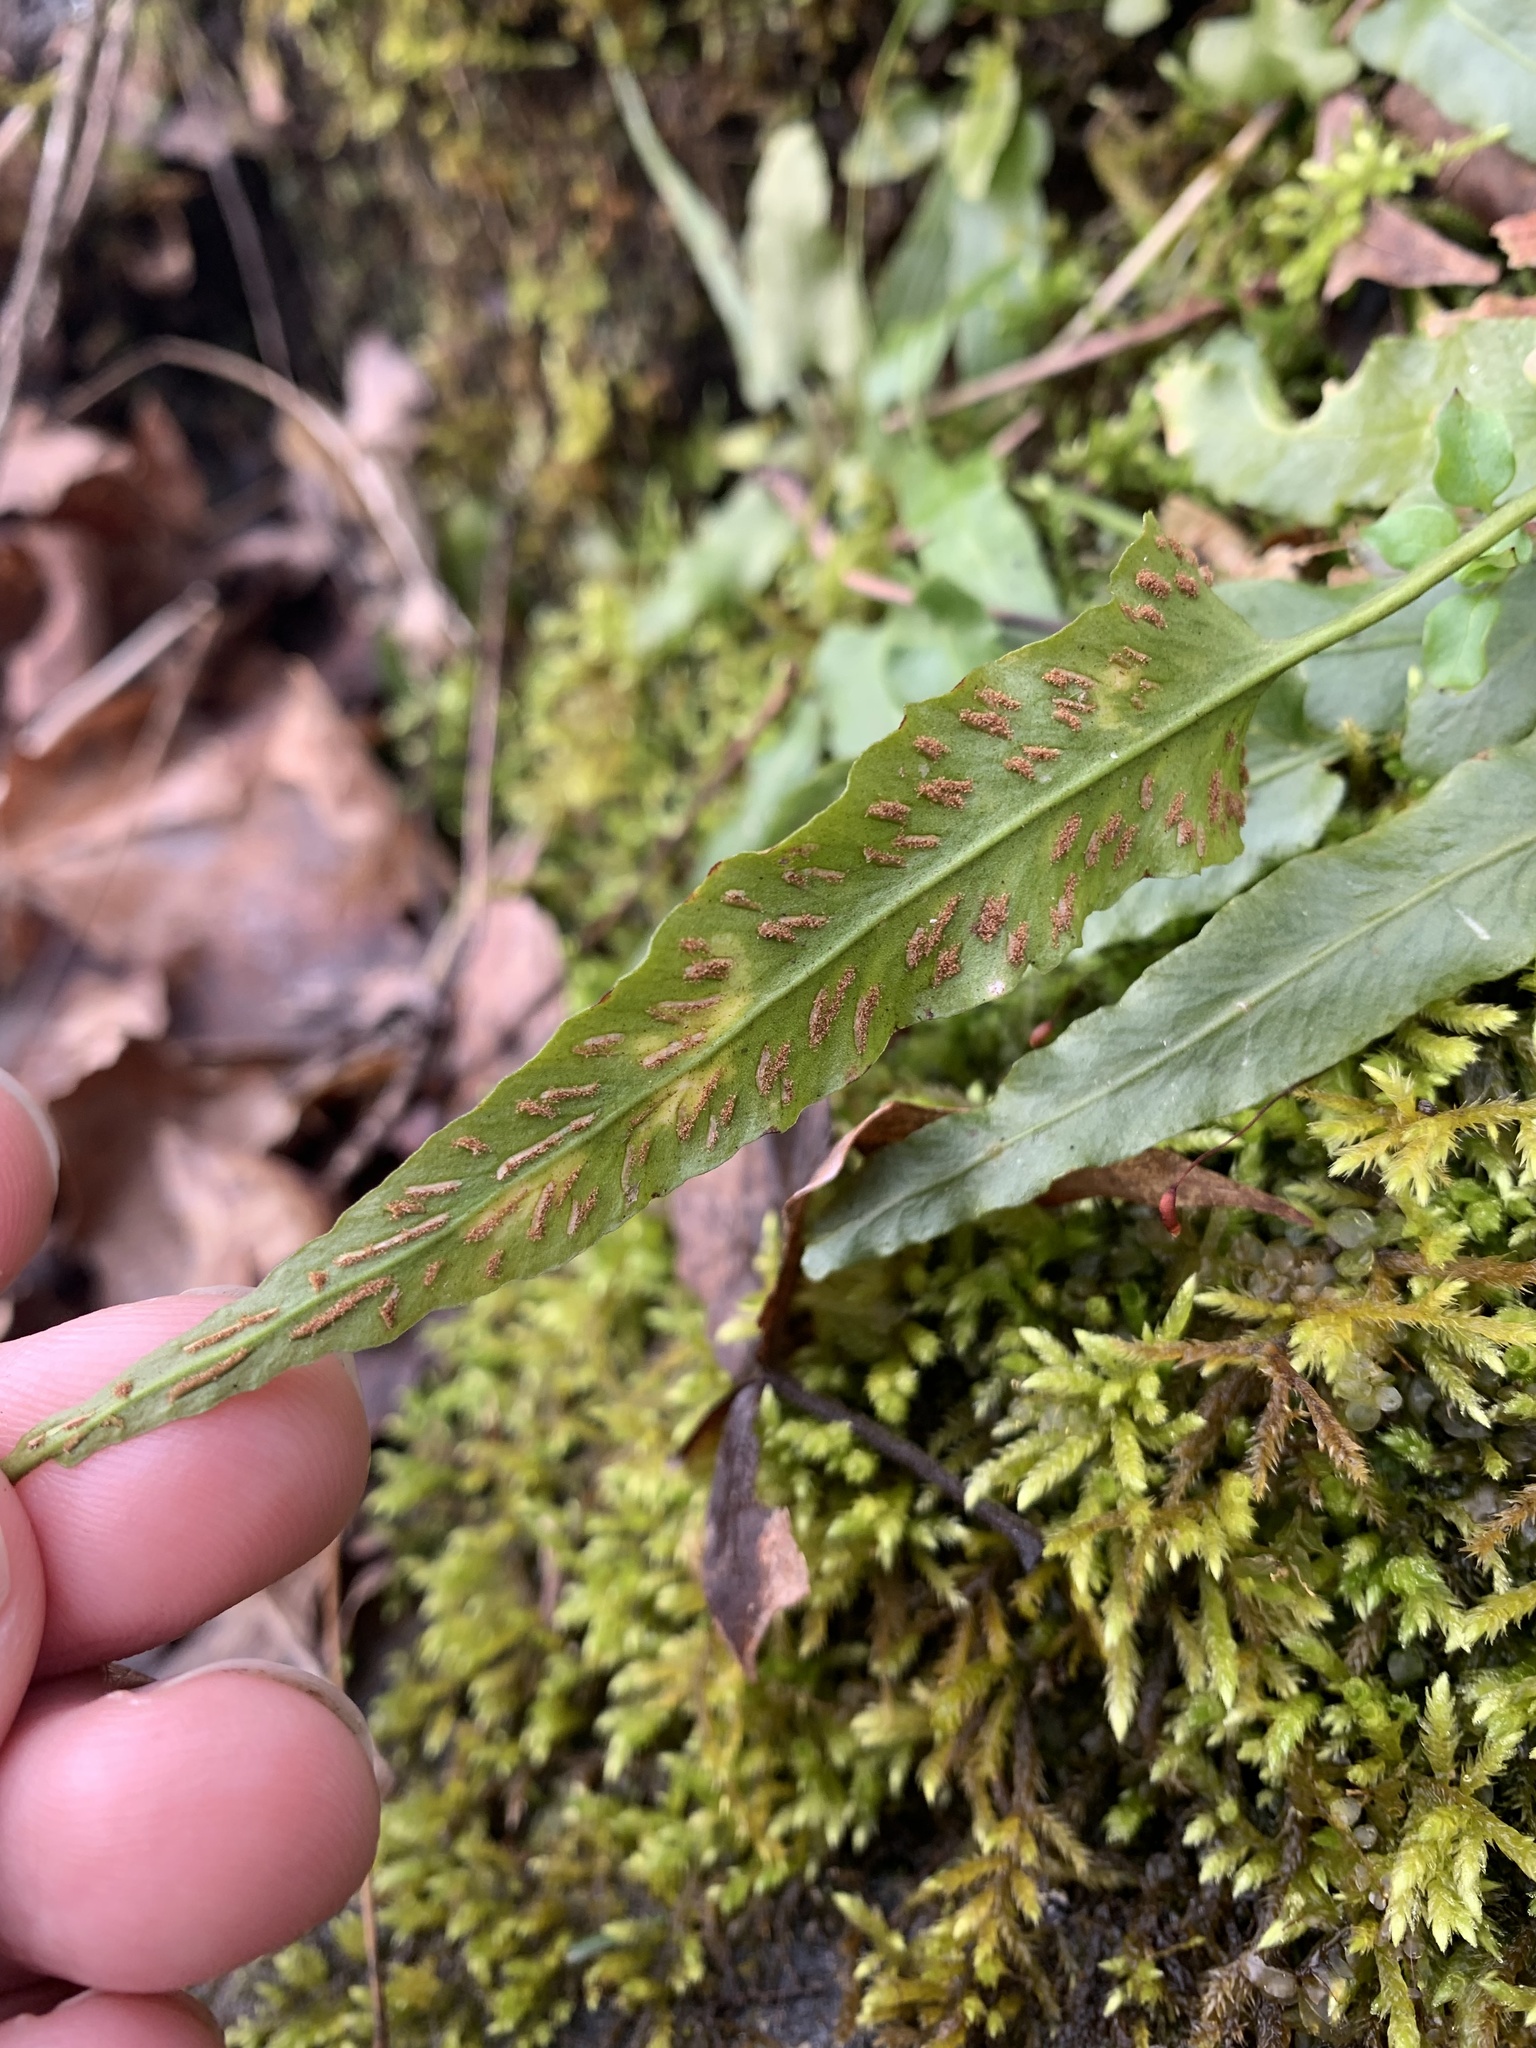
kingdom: Plantae
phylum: Tracheophyta
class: Polypodiopsida
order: Polypodiales
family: Aspleniaceae
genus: Asplenium
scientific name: Asplenium rhizophyllum
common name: Walking fern
